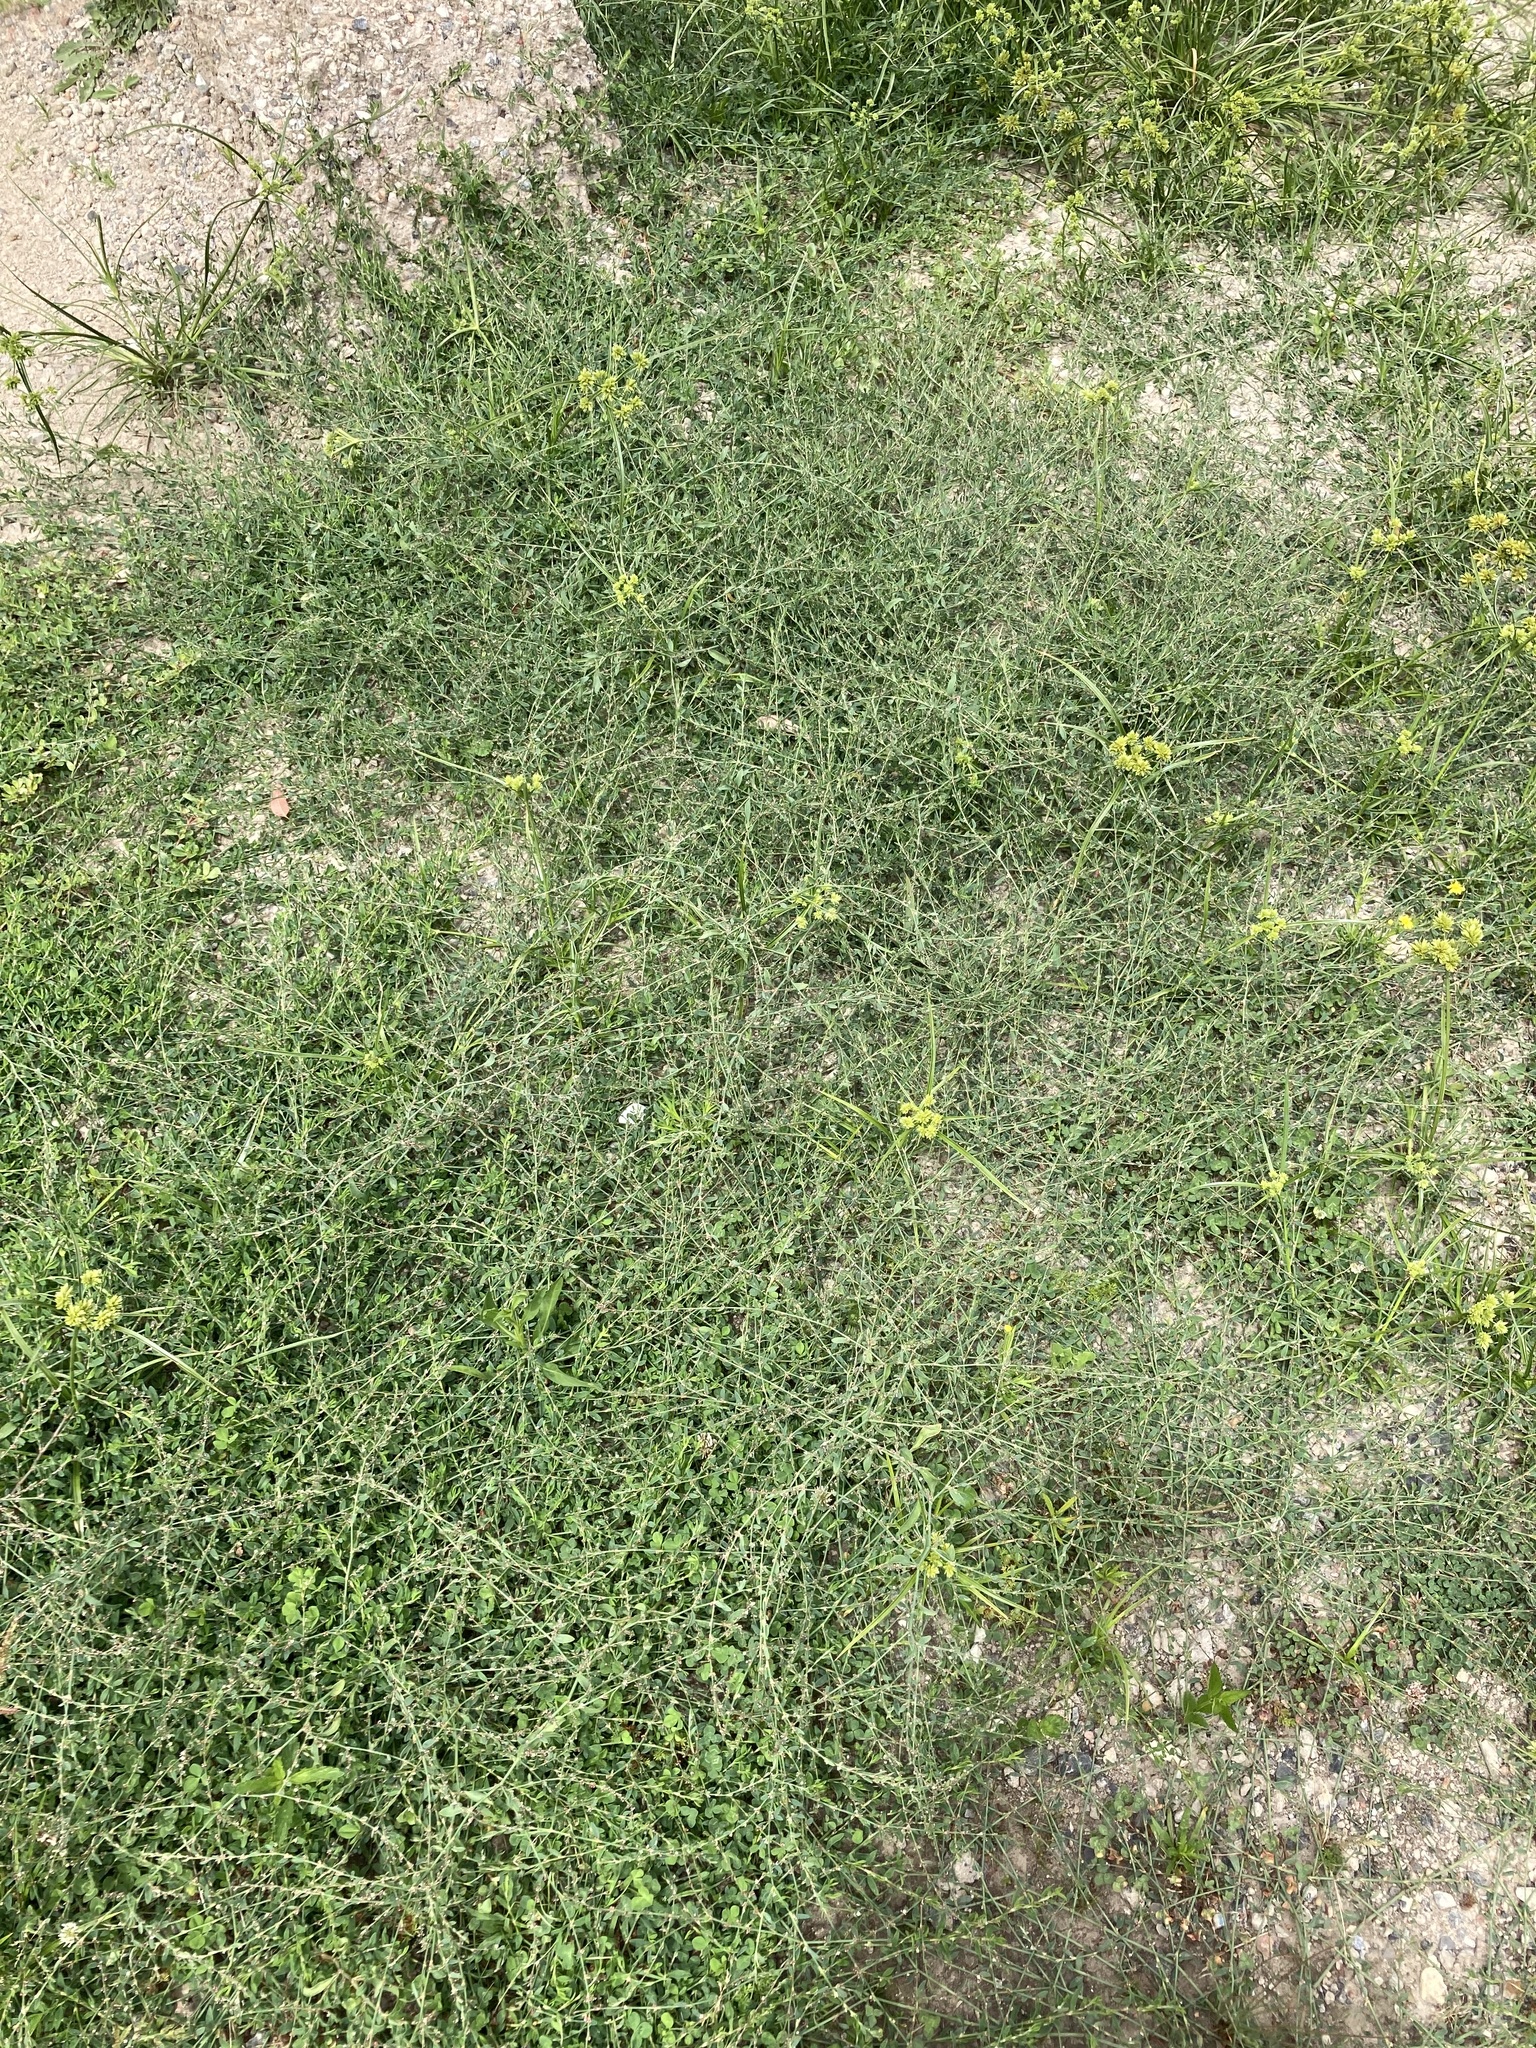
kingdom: Plantae
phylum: Tracheophyta
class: Magnoliopsida
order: Caryophyllales
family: Polygonaceae
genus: Polygonum
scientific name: Polygonum aviculare
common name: Prostrate knotweed
